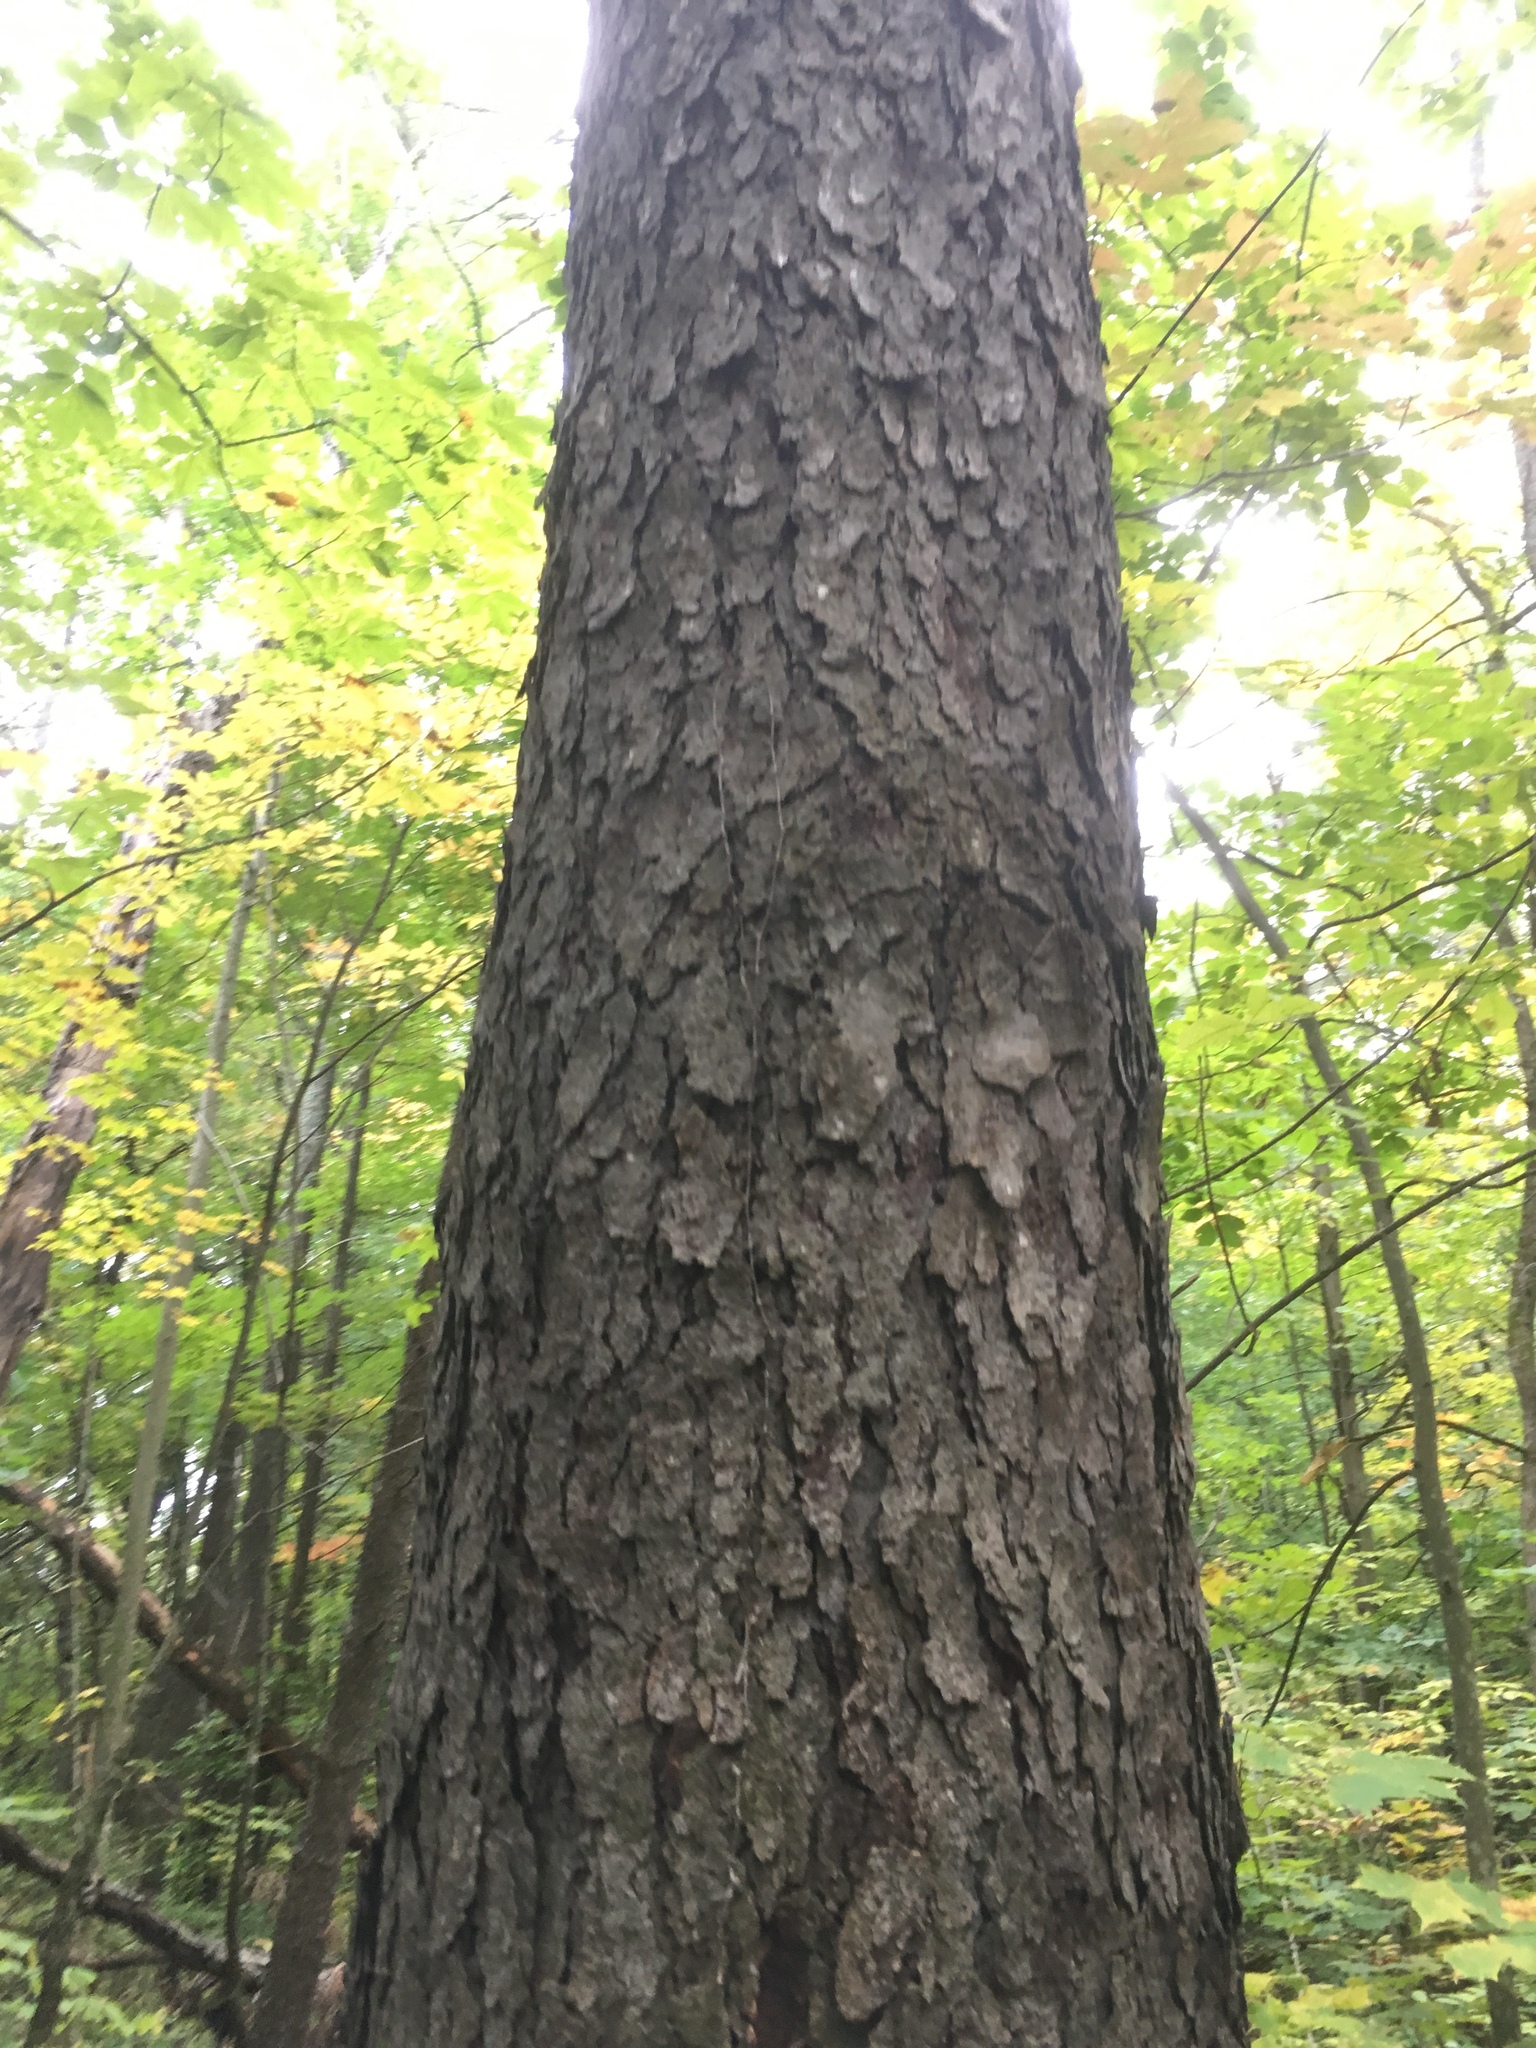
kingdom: Plantae
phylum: Tracheophyta
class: Magnoliopsida
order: Rosales
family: Rosaceae
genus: Prunus
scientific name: Prunus serotina
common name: Black cherry
